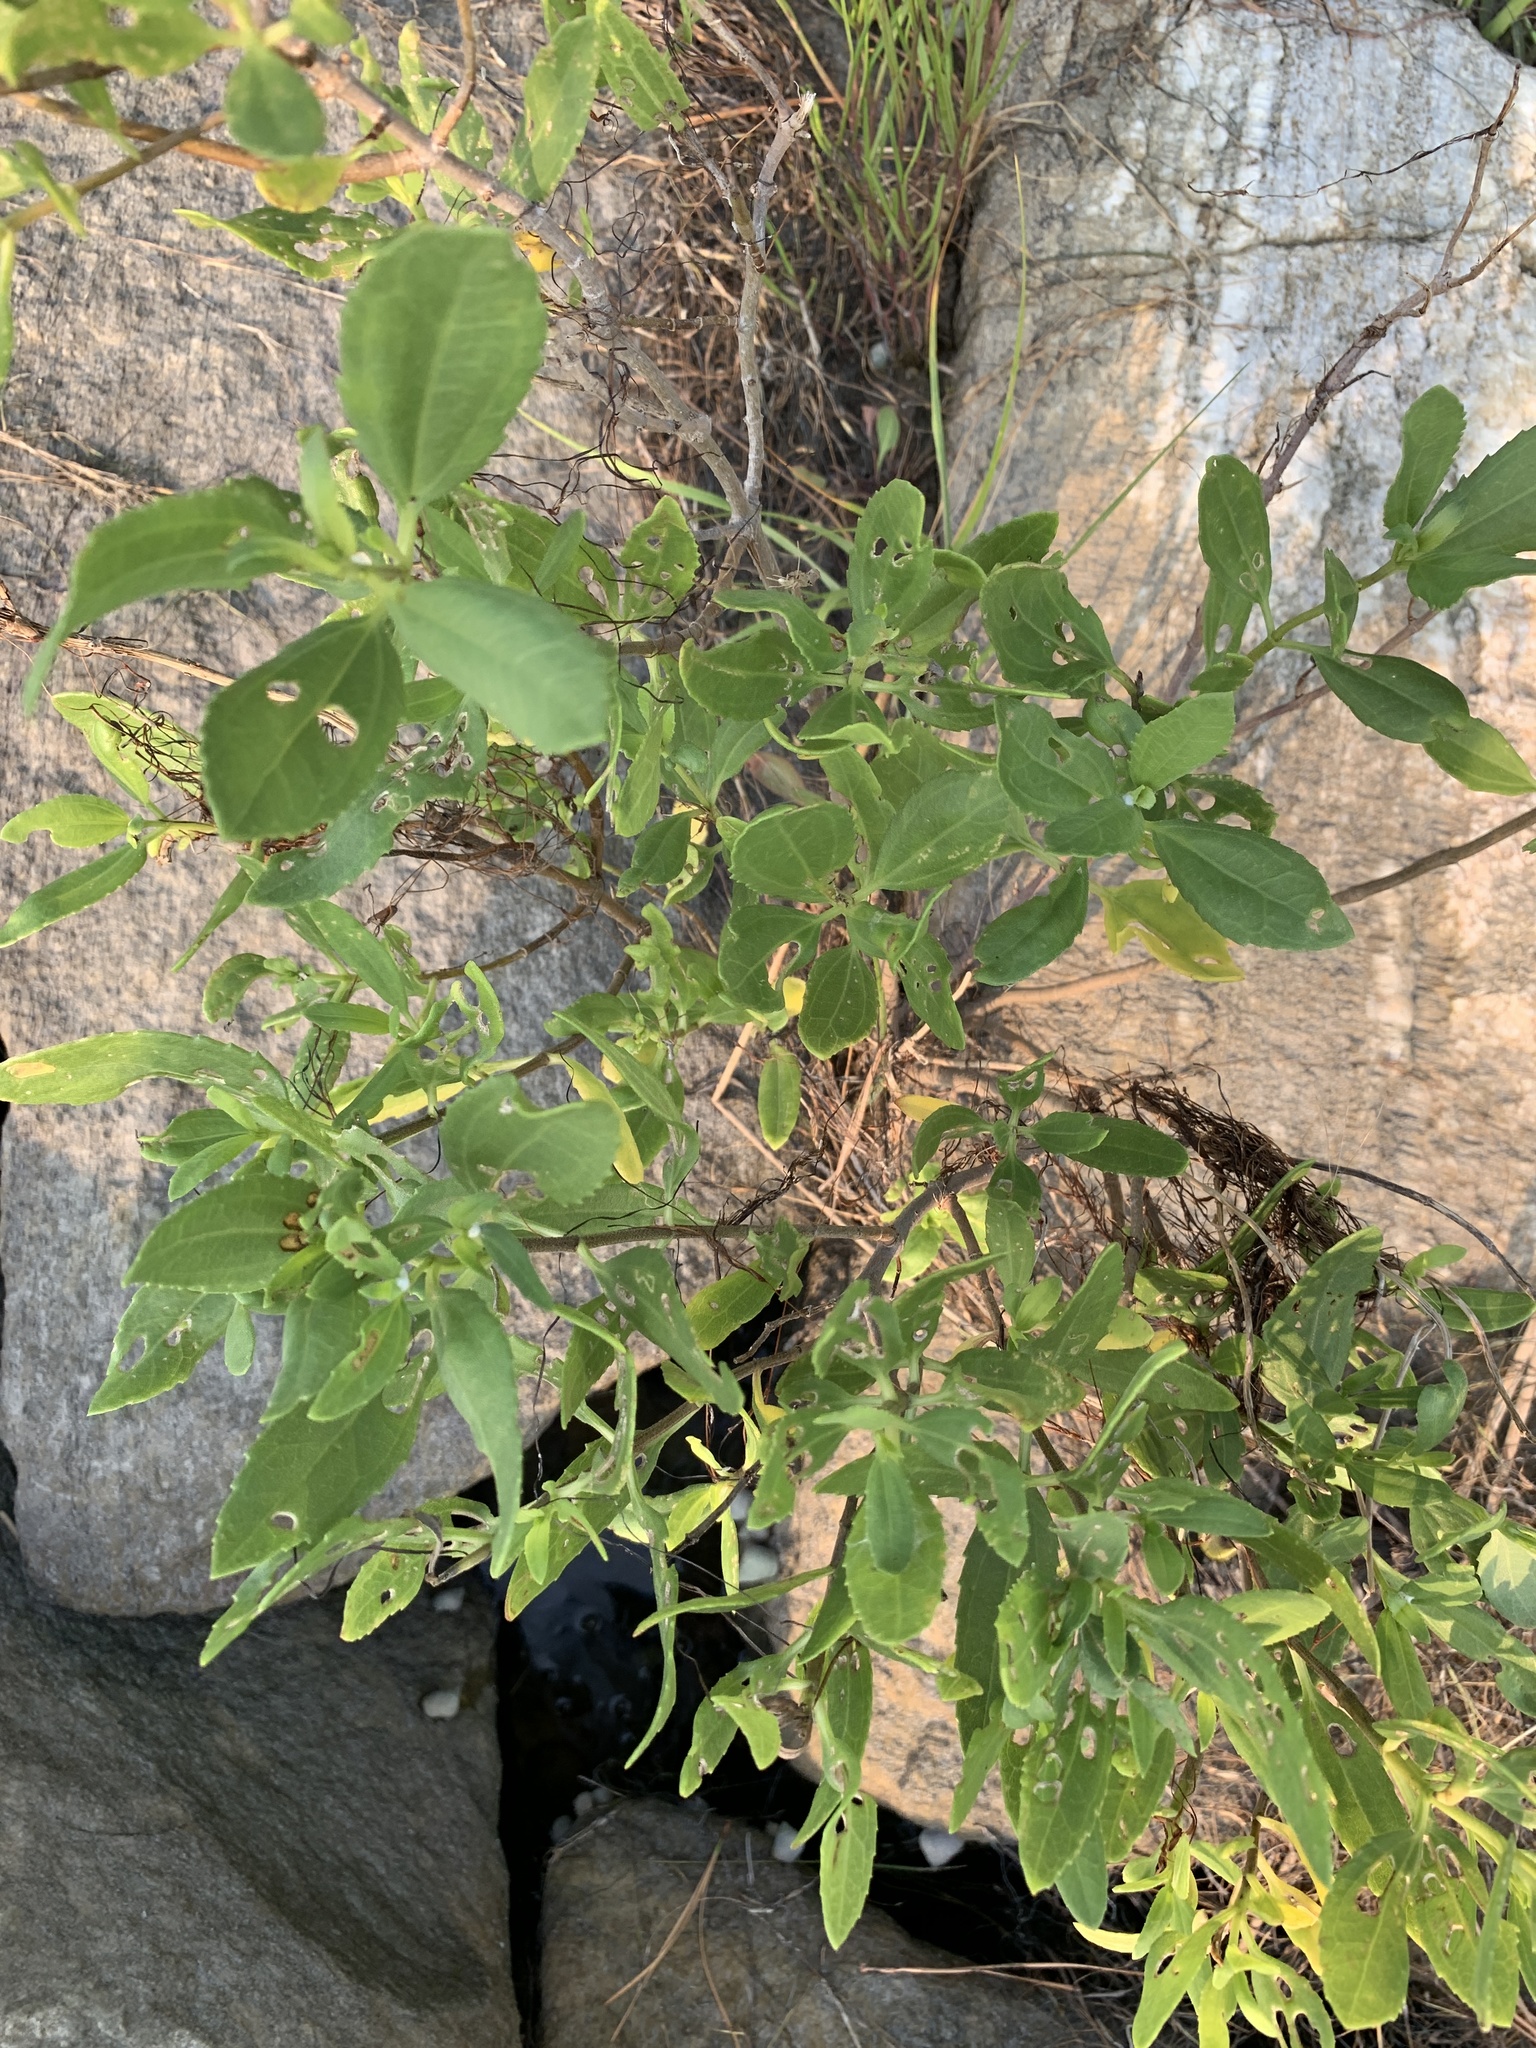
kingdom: Plantae
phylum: Tracheophyta
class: Magnoliopsida
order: Asterales
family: Asteraceae
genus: Iva
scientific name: Iva frutescens
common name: Big-leaved marsh-elder
